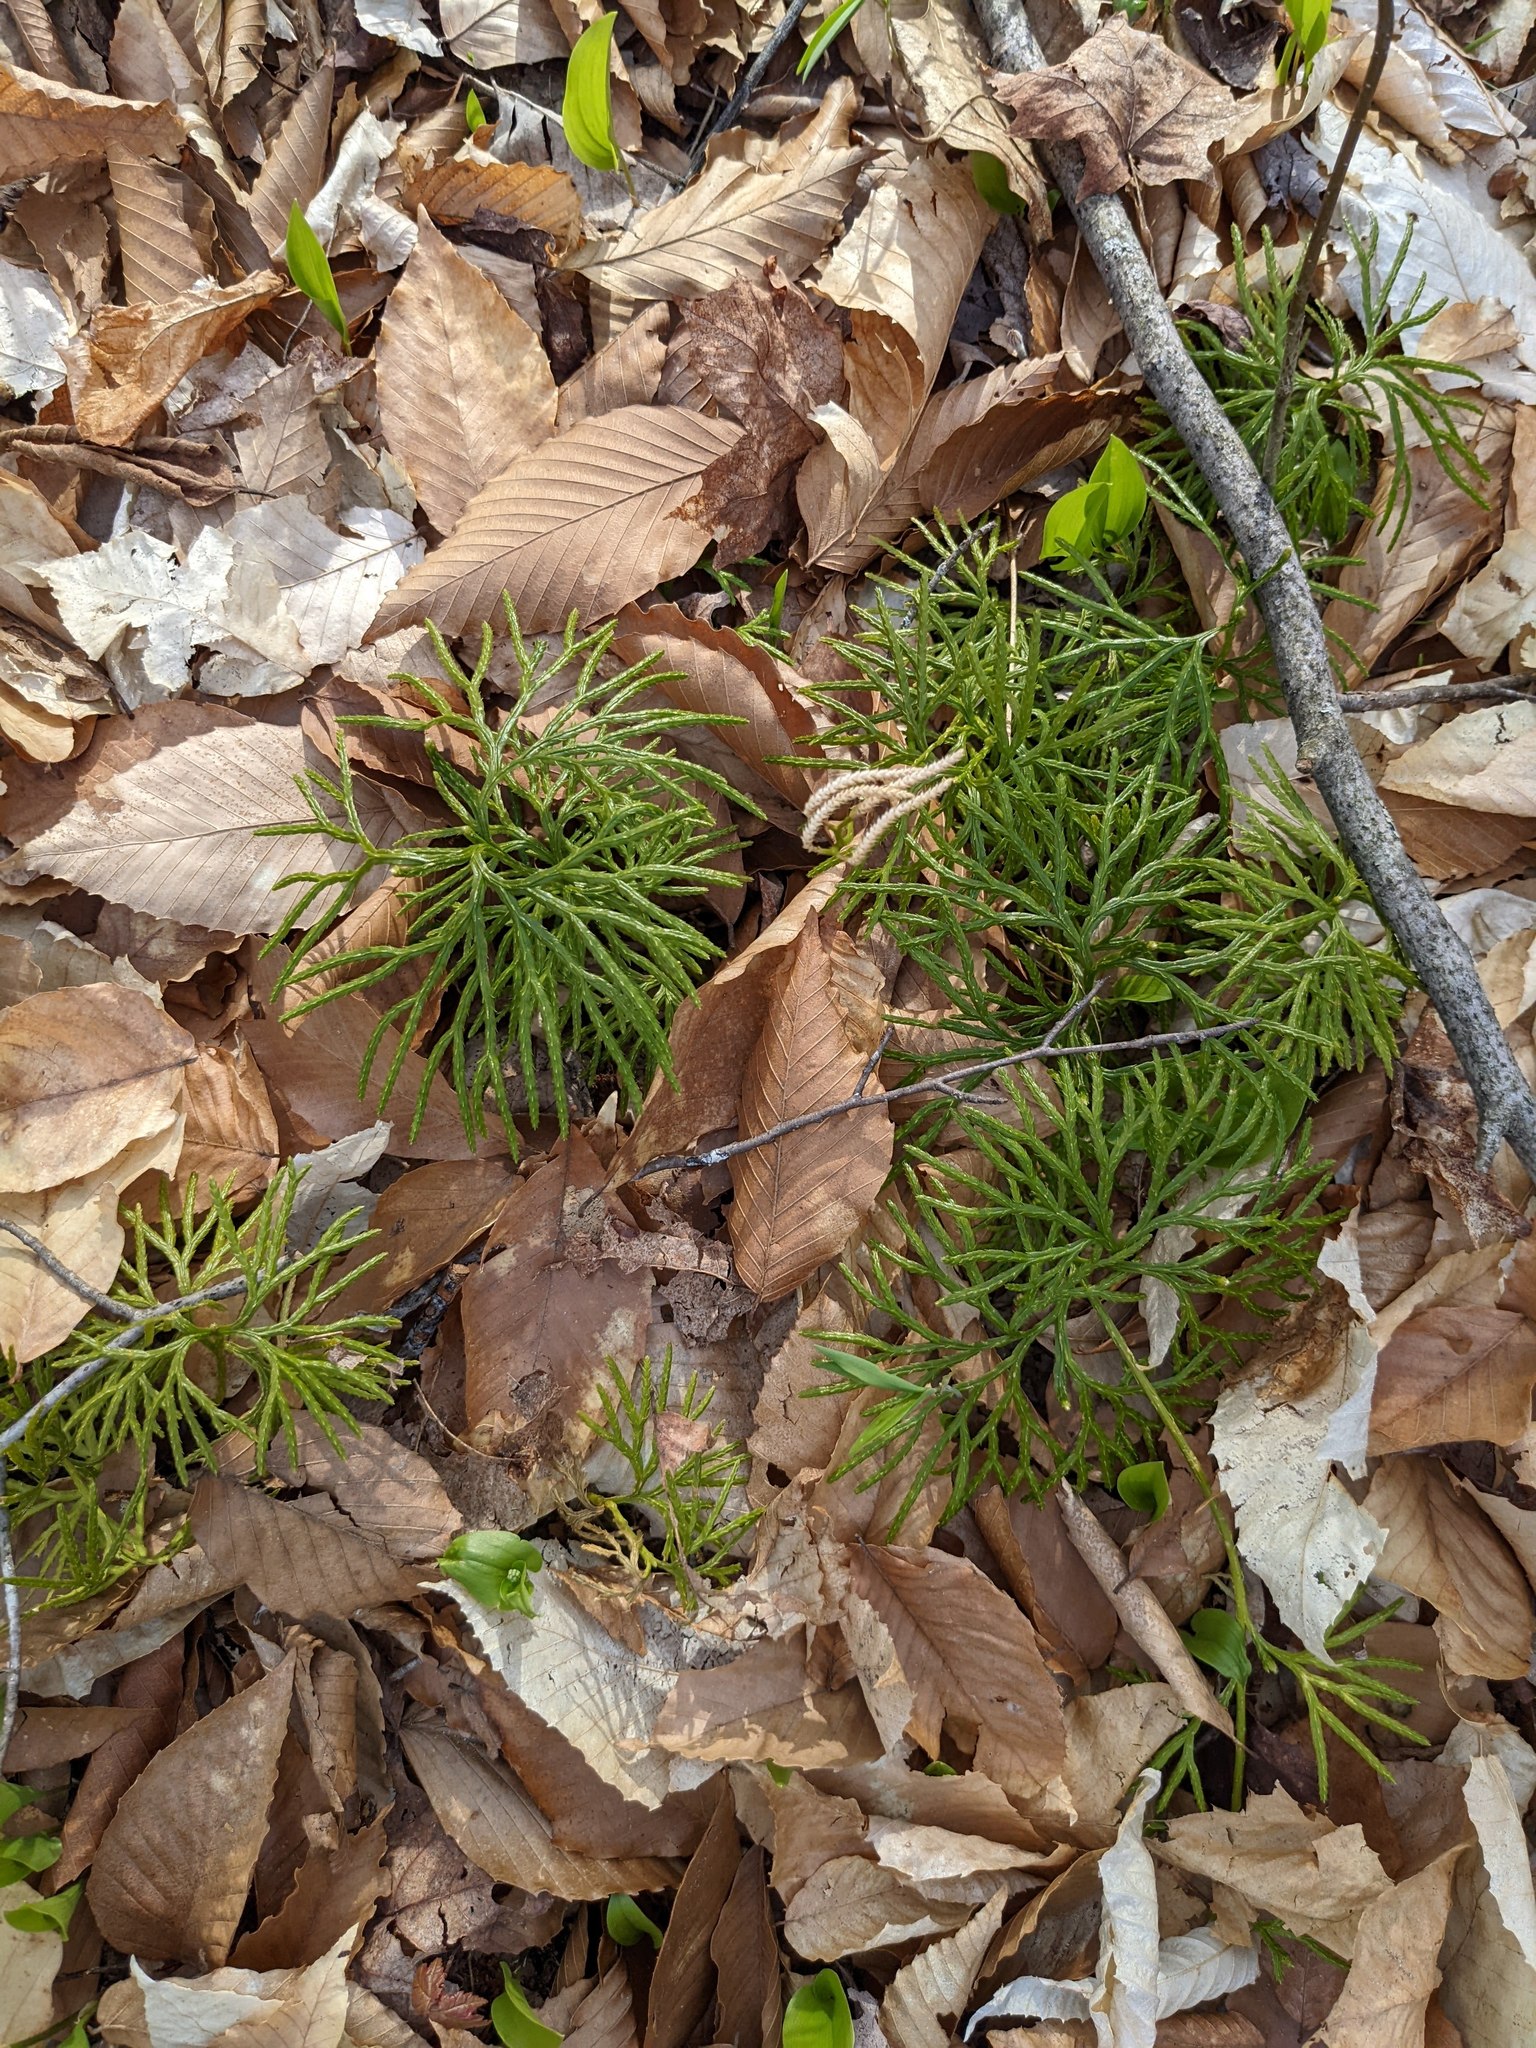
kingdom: Plantae
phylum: Tracheophyta
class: Lycopodiopsida
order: Lycopodiales
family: Lycopodiaceae
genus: Diphasiastrum
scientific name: Diphasiastrum digitatum
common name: Southern running-pine
